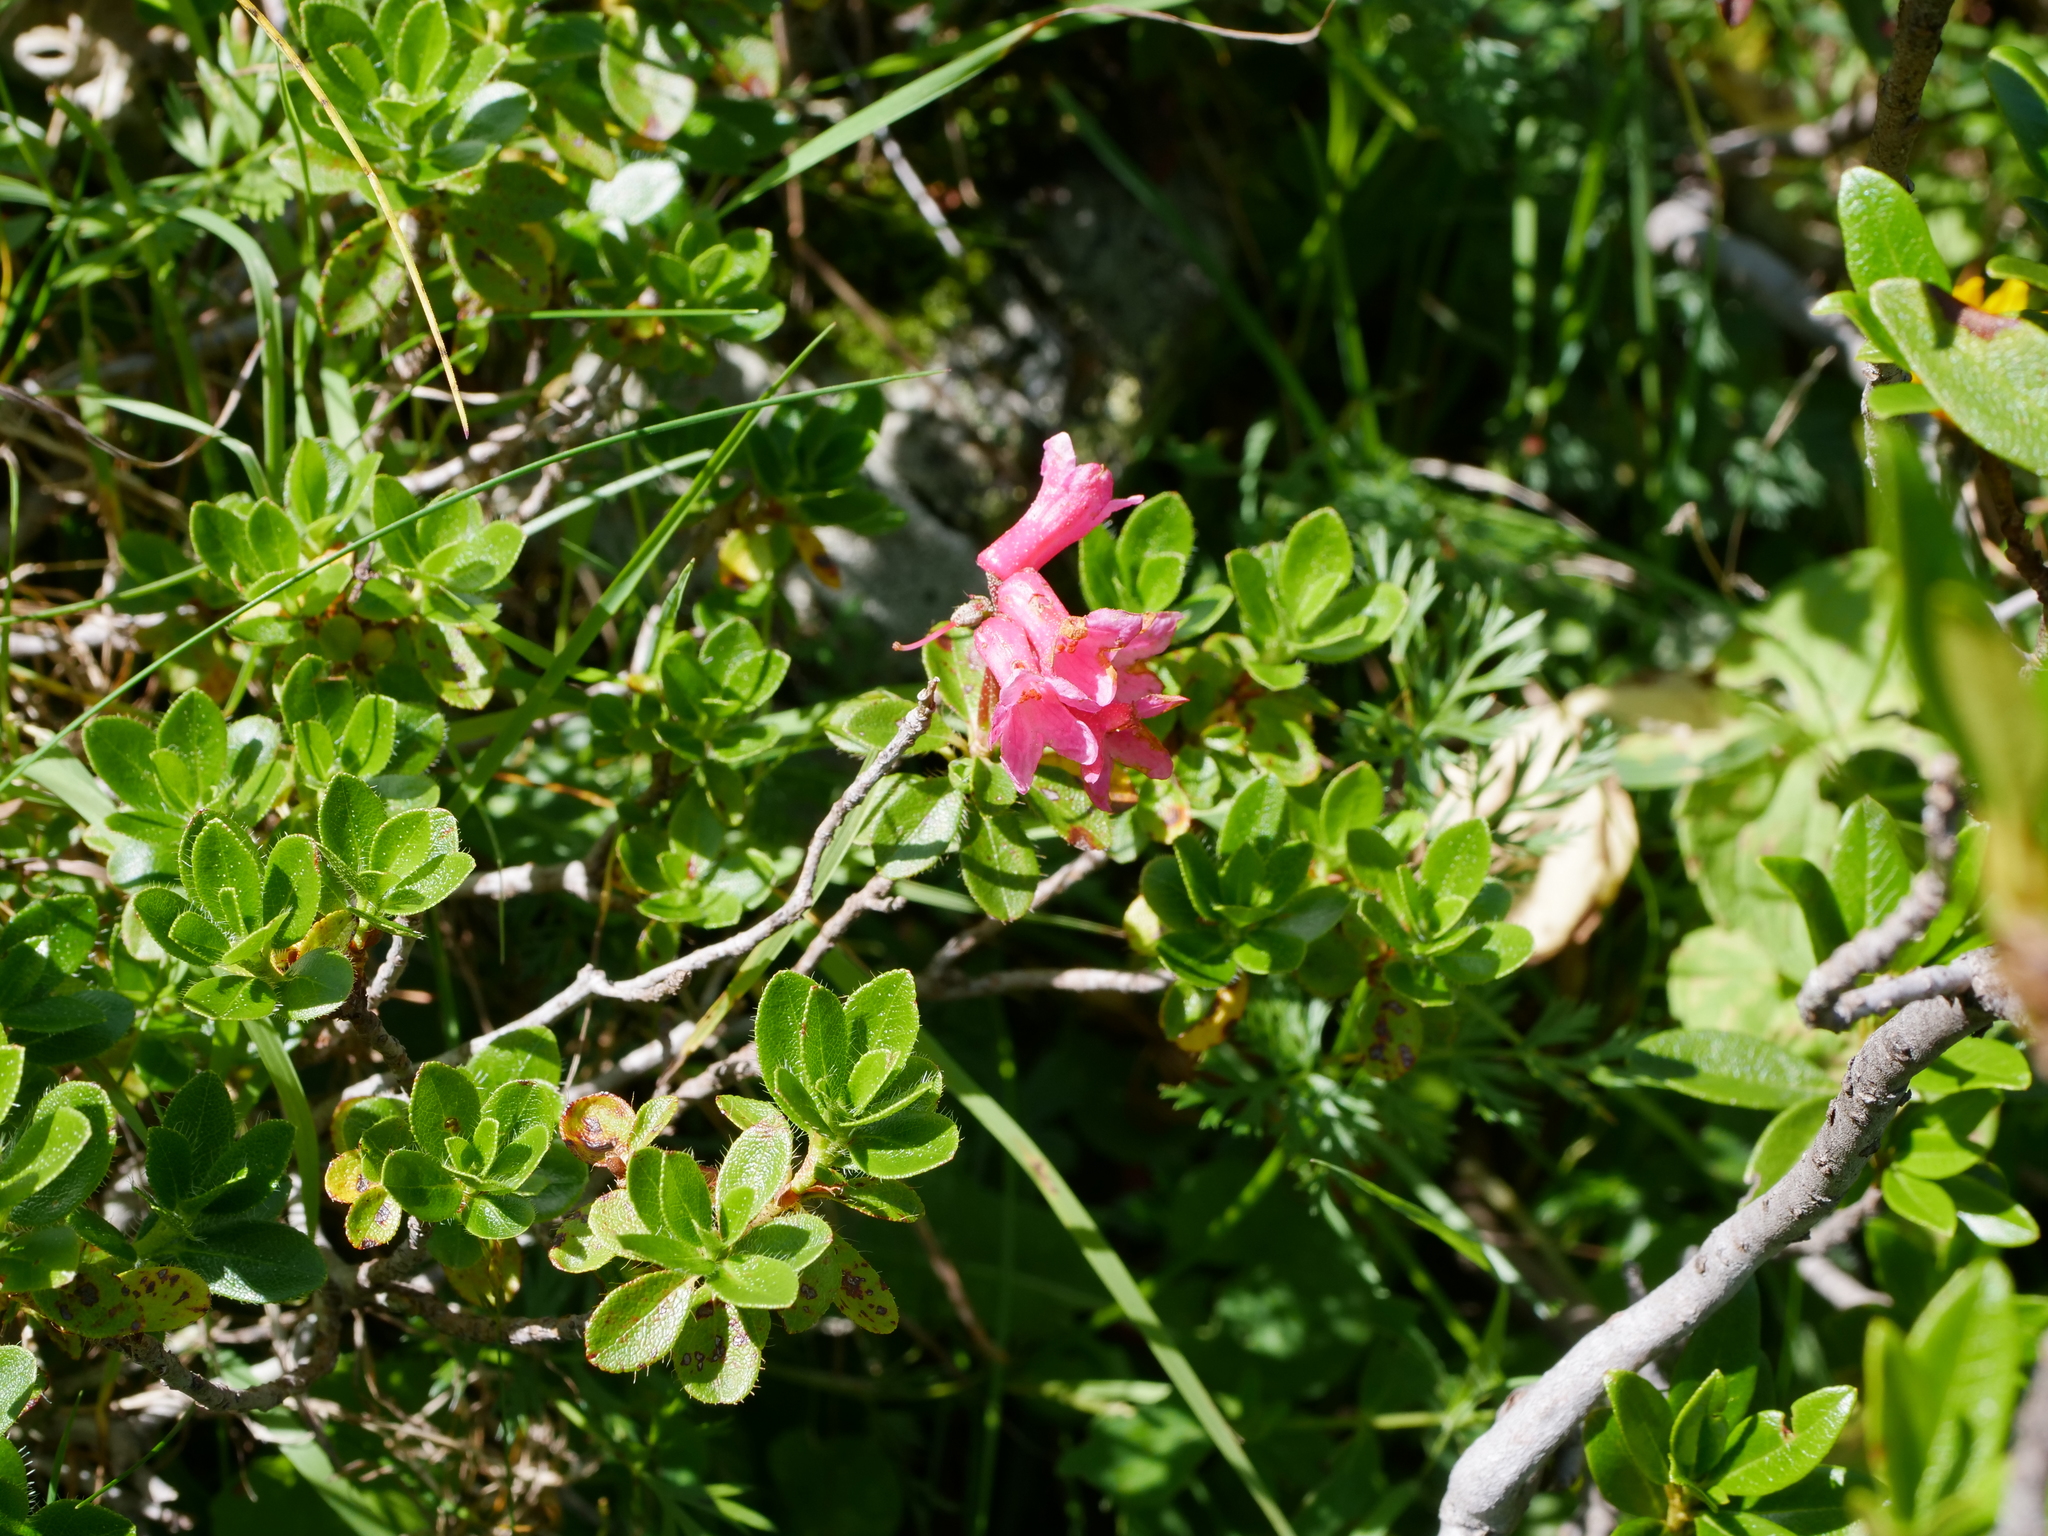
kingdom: Plantae
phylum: Tracheophyta
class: Magnoliopsida
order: Ericales
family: Ericaceae
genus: Rhododendron
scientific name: Rhododendron hirsutum
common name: Hairy alpenrose
